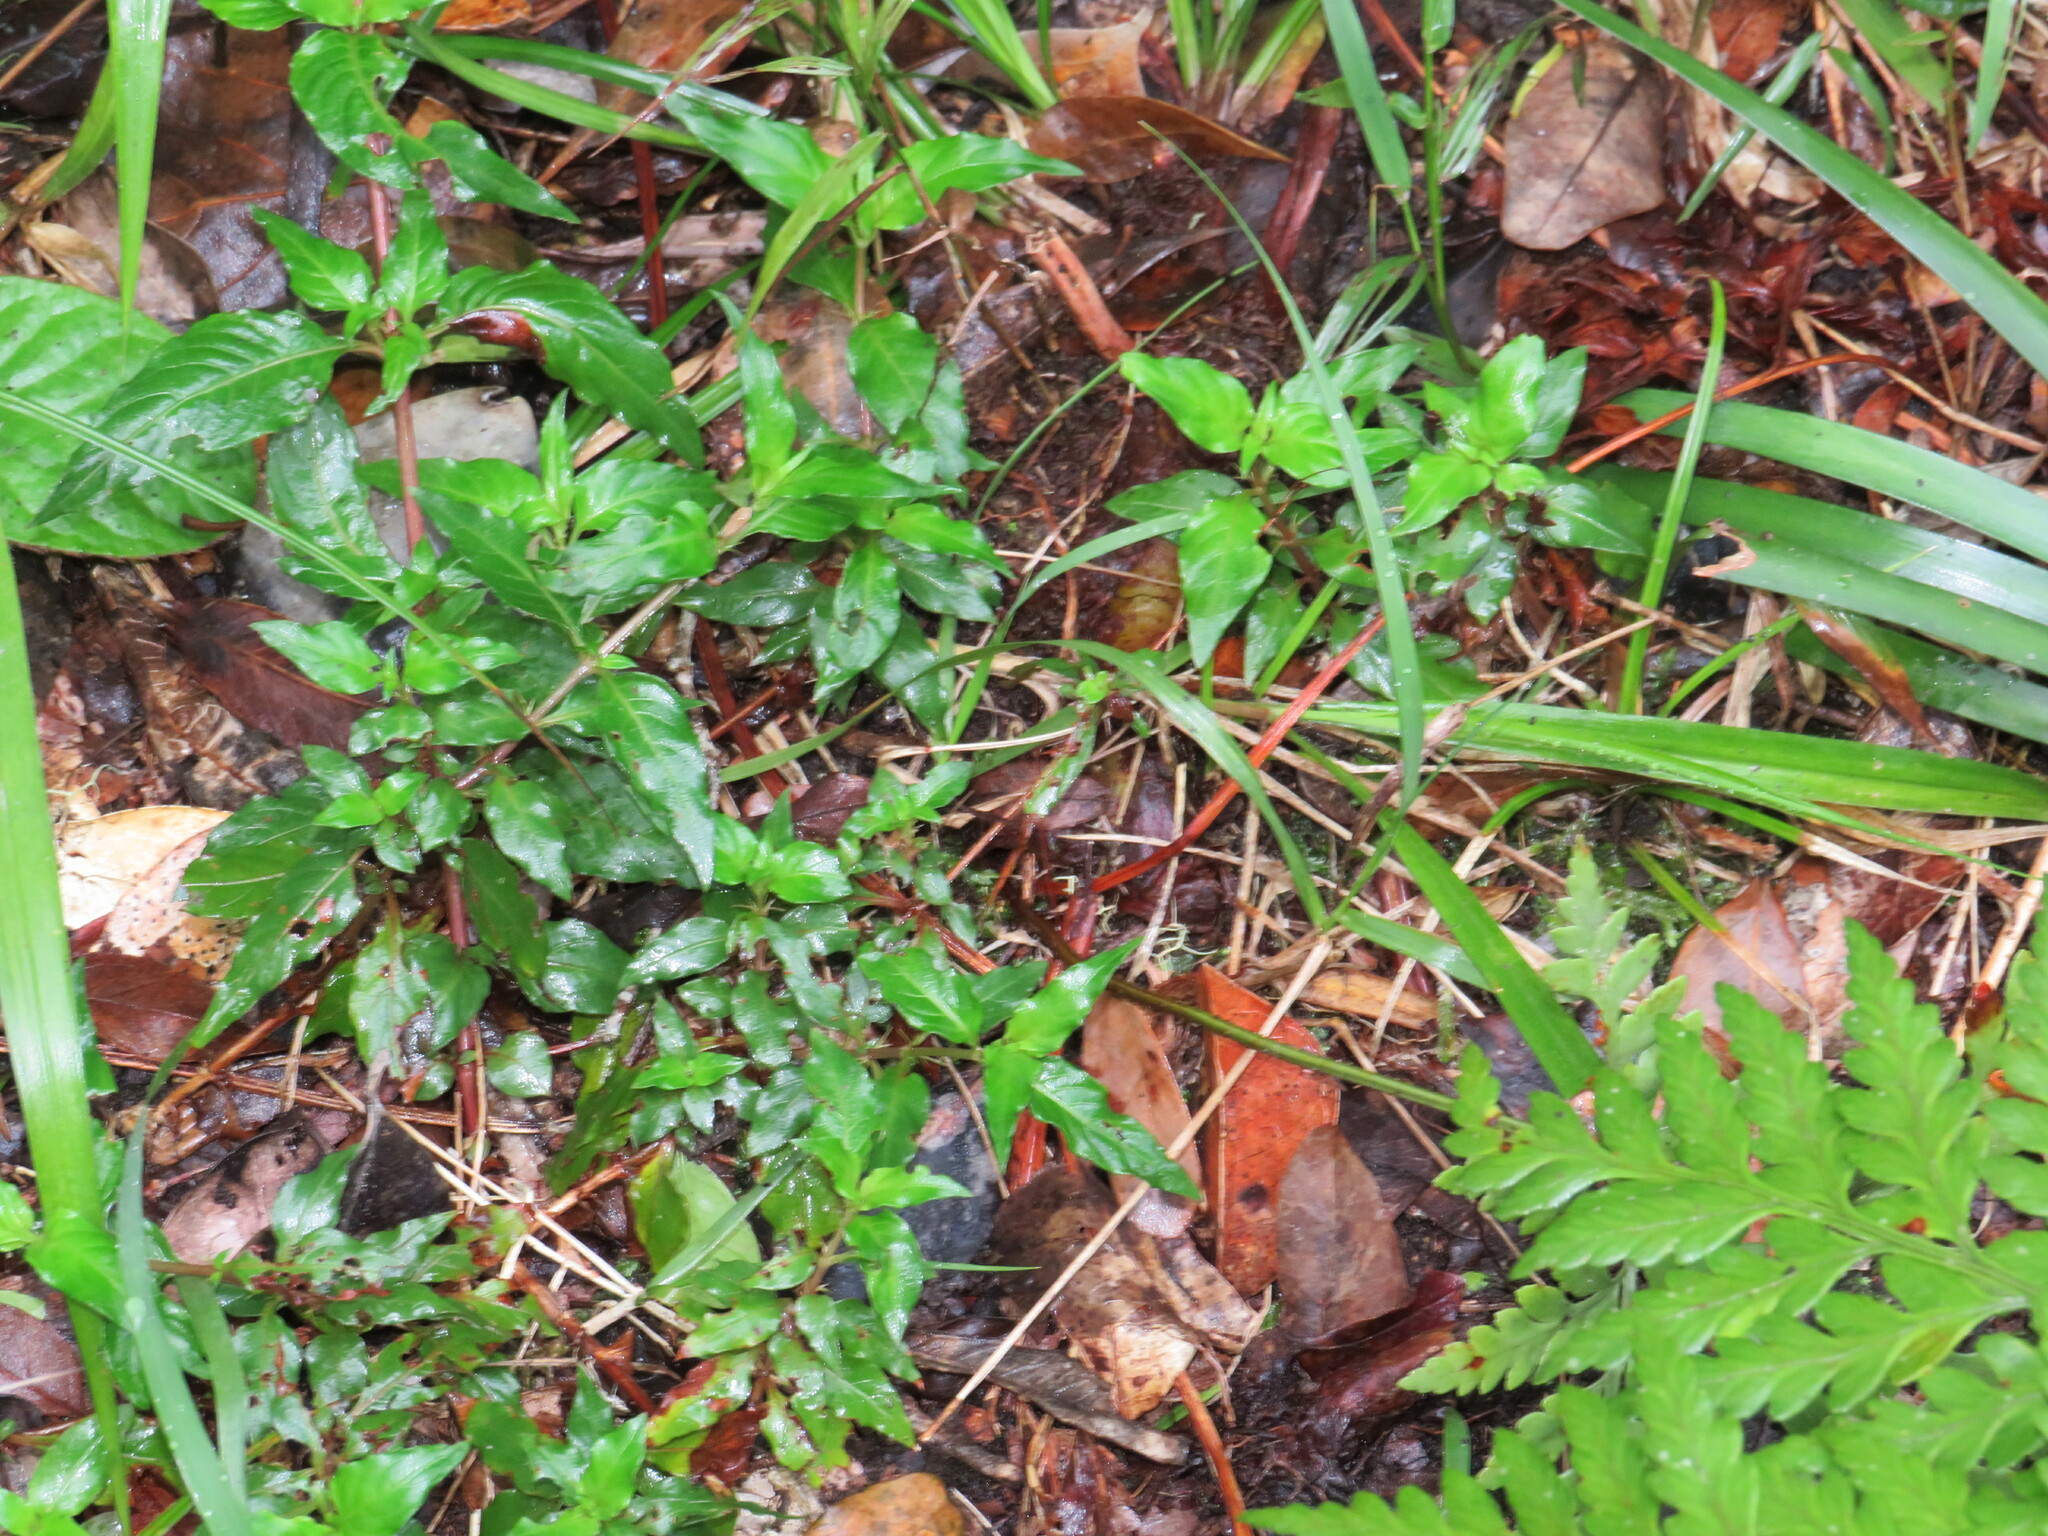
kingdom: Plantae
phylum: Tracheophyta
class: Magnoliopsida
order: Gentianales
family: Rubiaceae
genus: Galopina
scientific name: Galopina circaeoides
